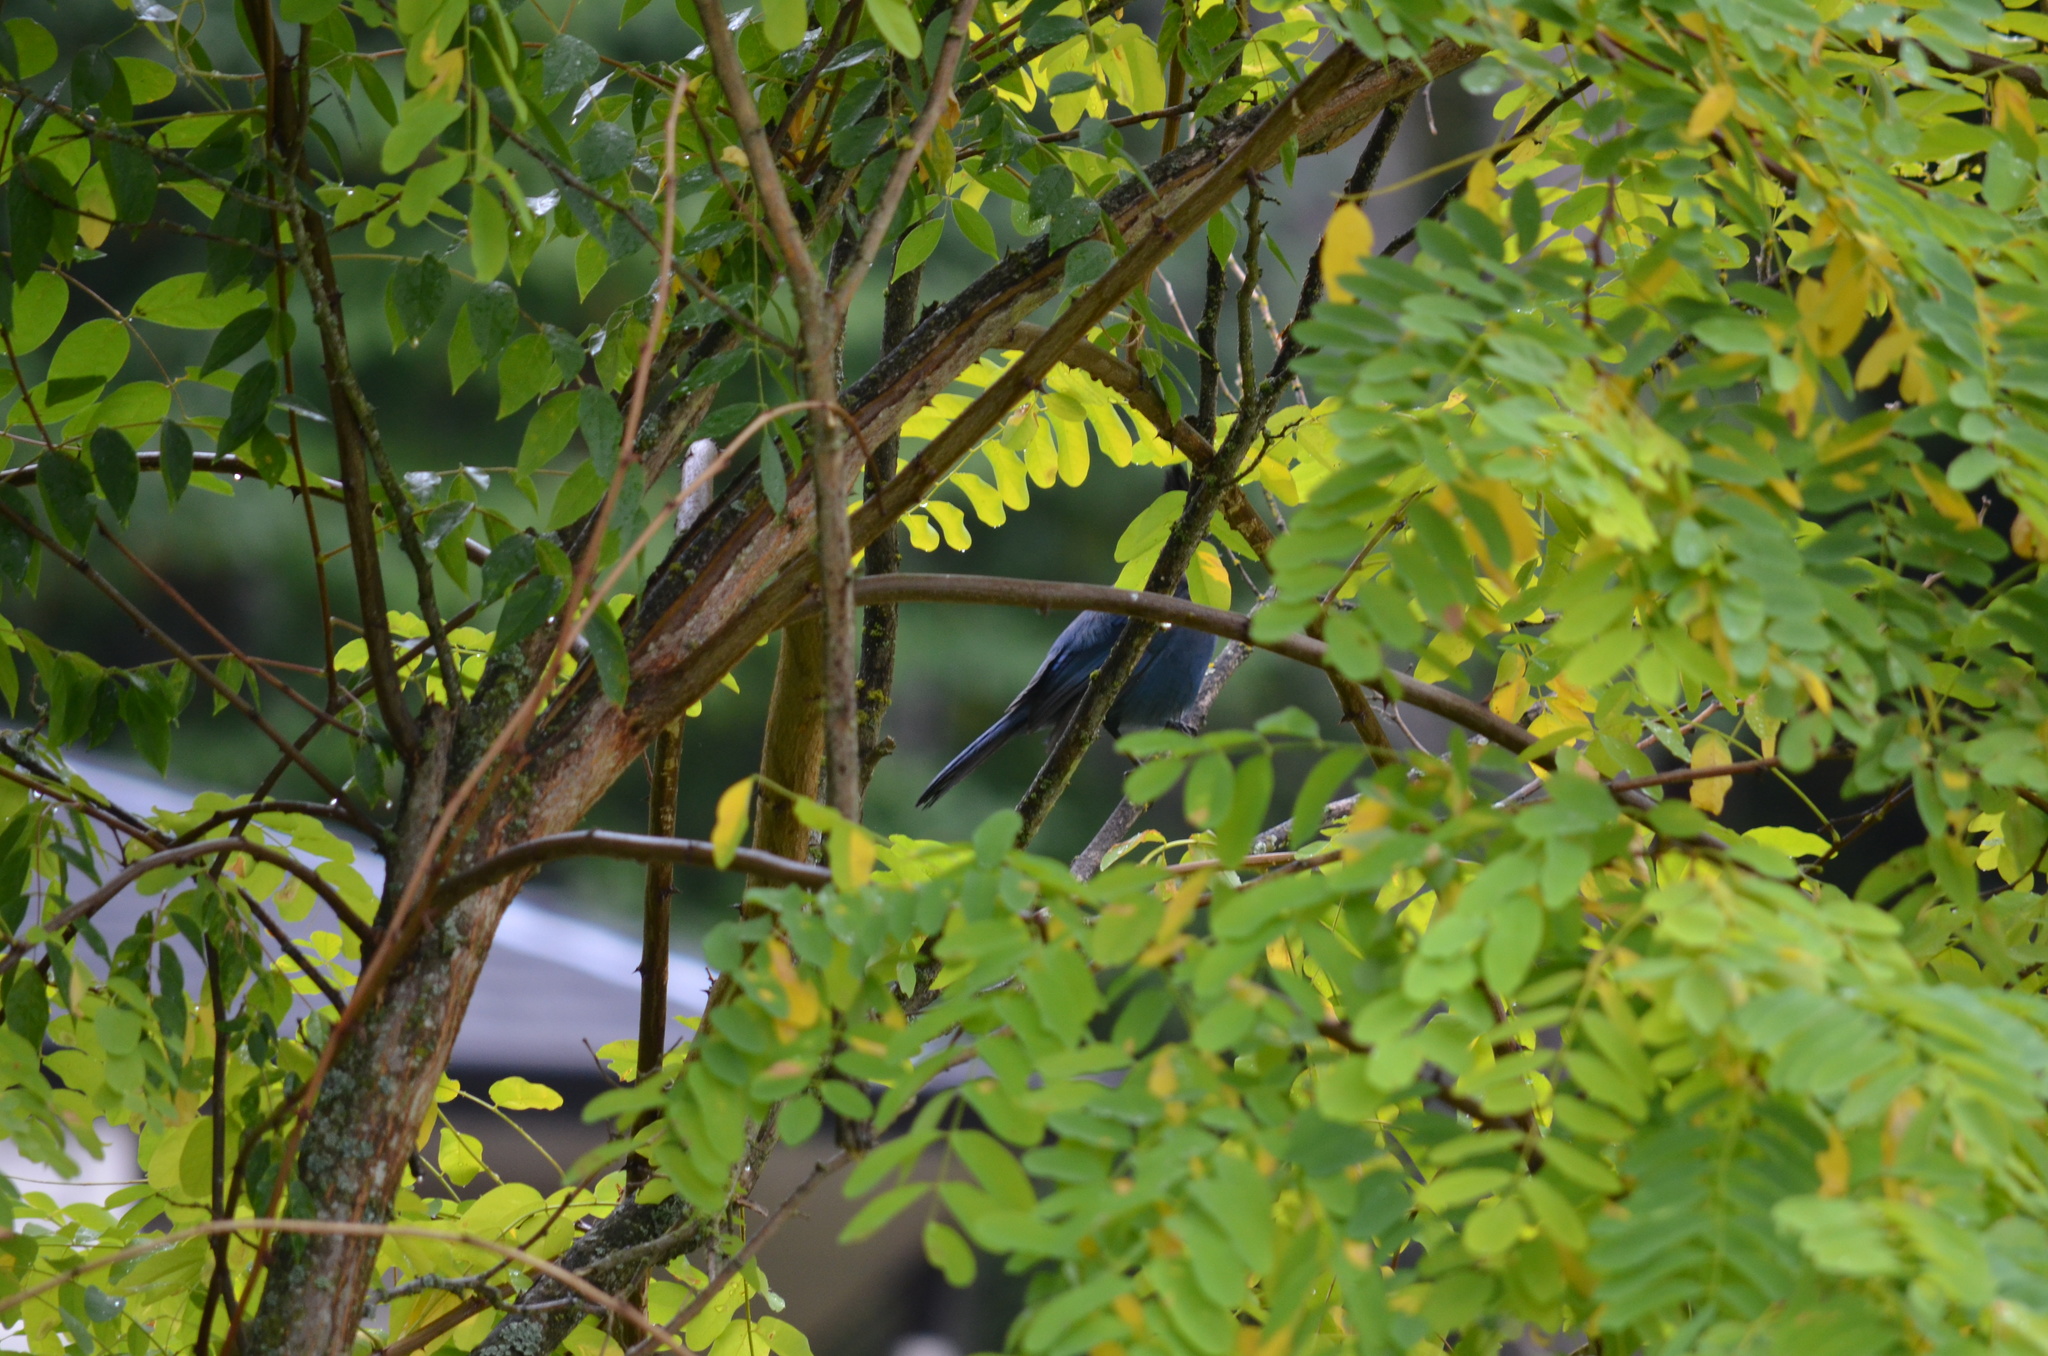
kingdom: Animalia
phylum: Chordata
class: Aves
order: Passeriformes
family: Corvidae
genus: Cyanocitta
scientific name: Cyanocitta stelleri
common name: Steller's jay
